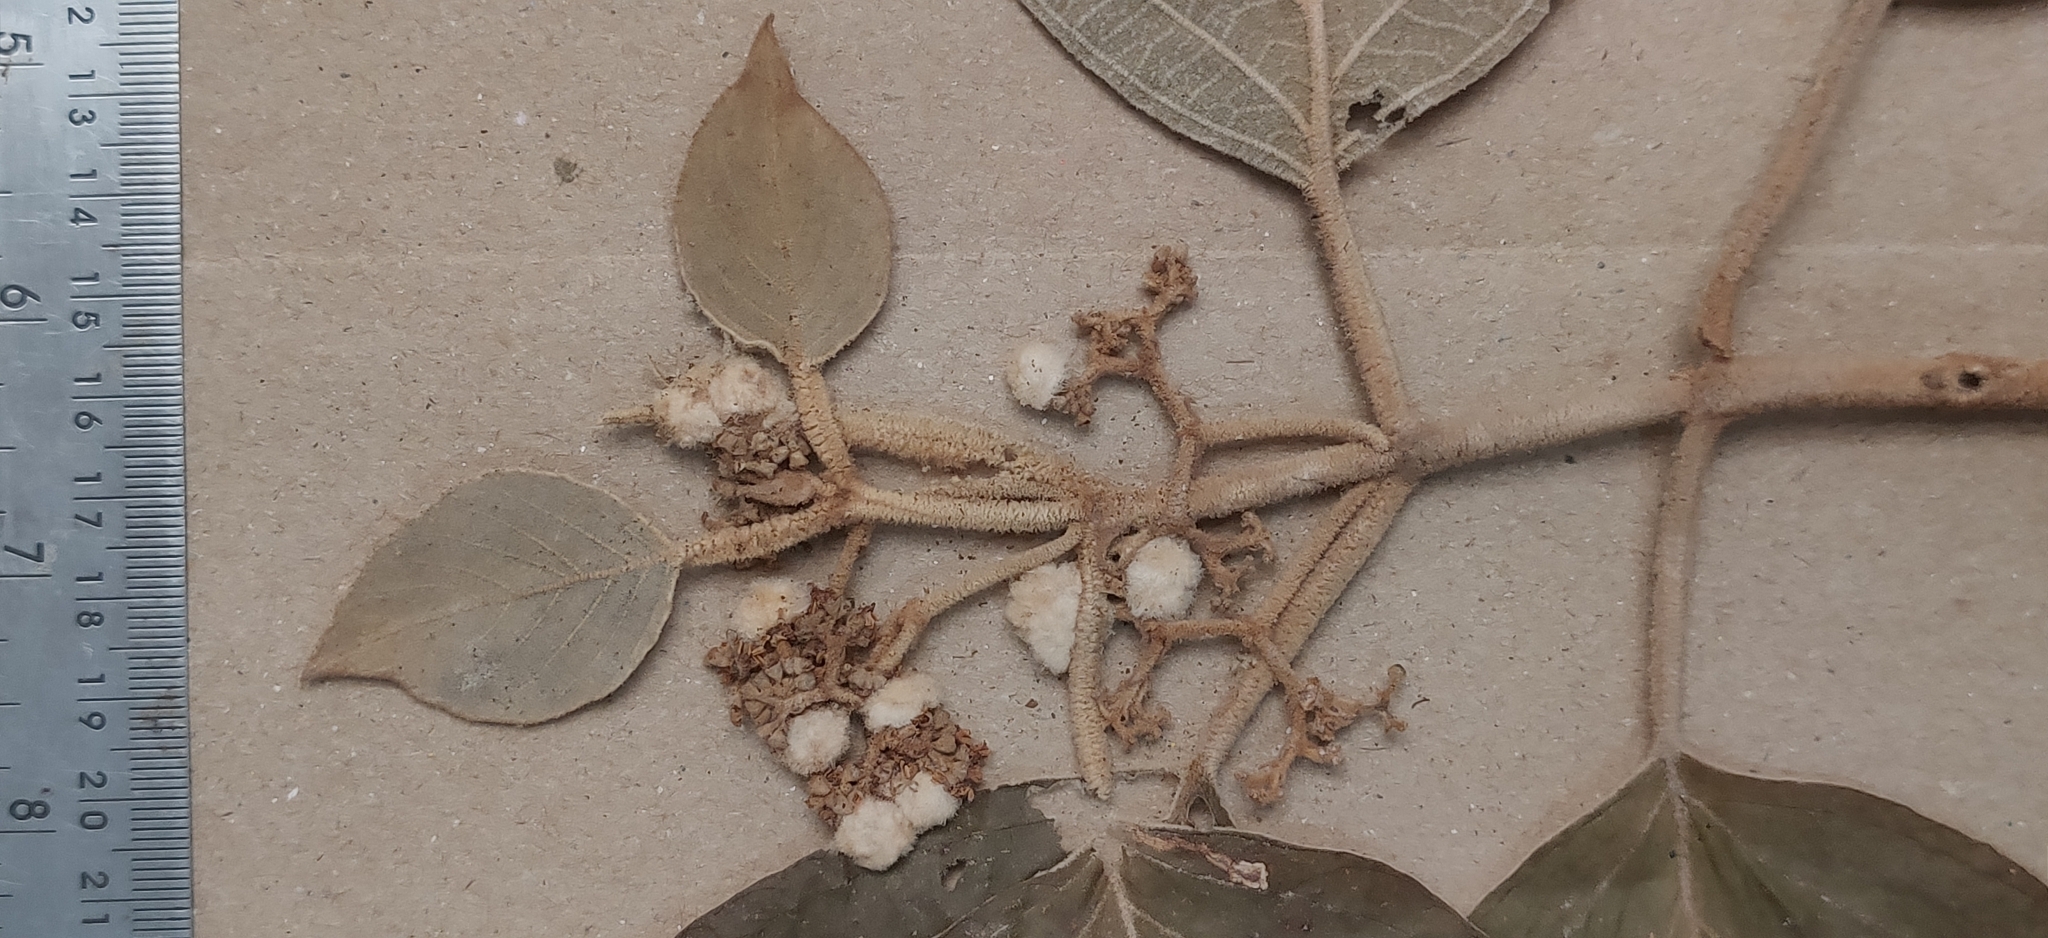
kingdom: Plantae
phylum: Tracheophyta
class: Magnoliopsida
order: Lamiales
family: Lamiaceae
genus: Callicarpa
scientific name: Callicarpa tomentosa
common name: Great woolly malayan-lilac
